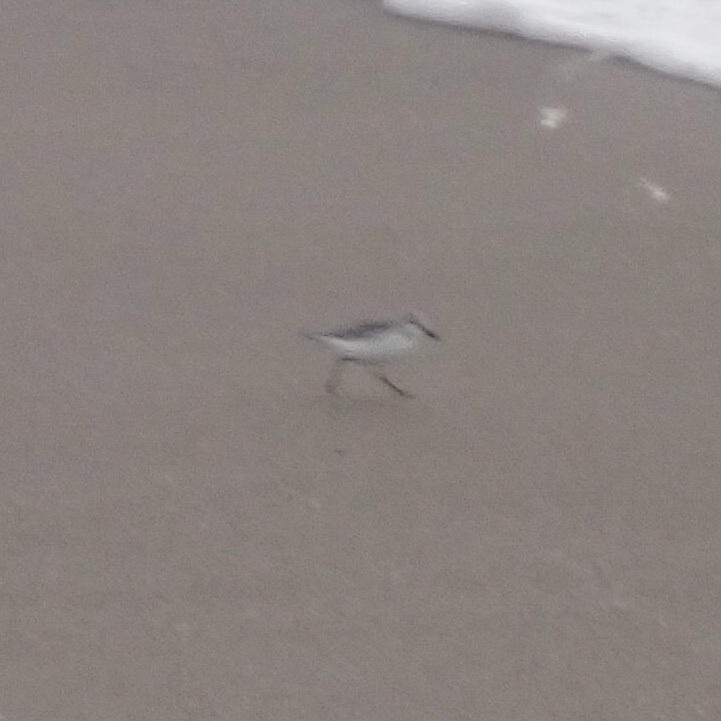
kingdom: Animalia
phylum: Chordata
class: Aves
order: Charadriiformes
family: Scolopacidae
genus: Calidris
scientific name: Calidris alba
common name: Sanderling
